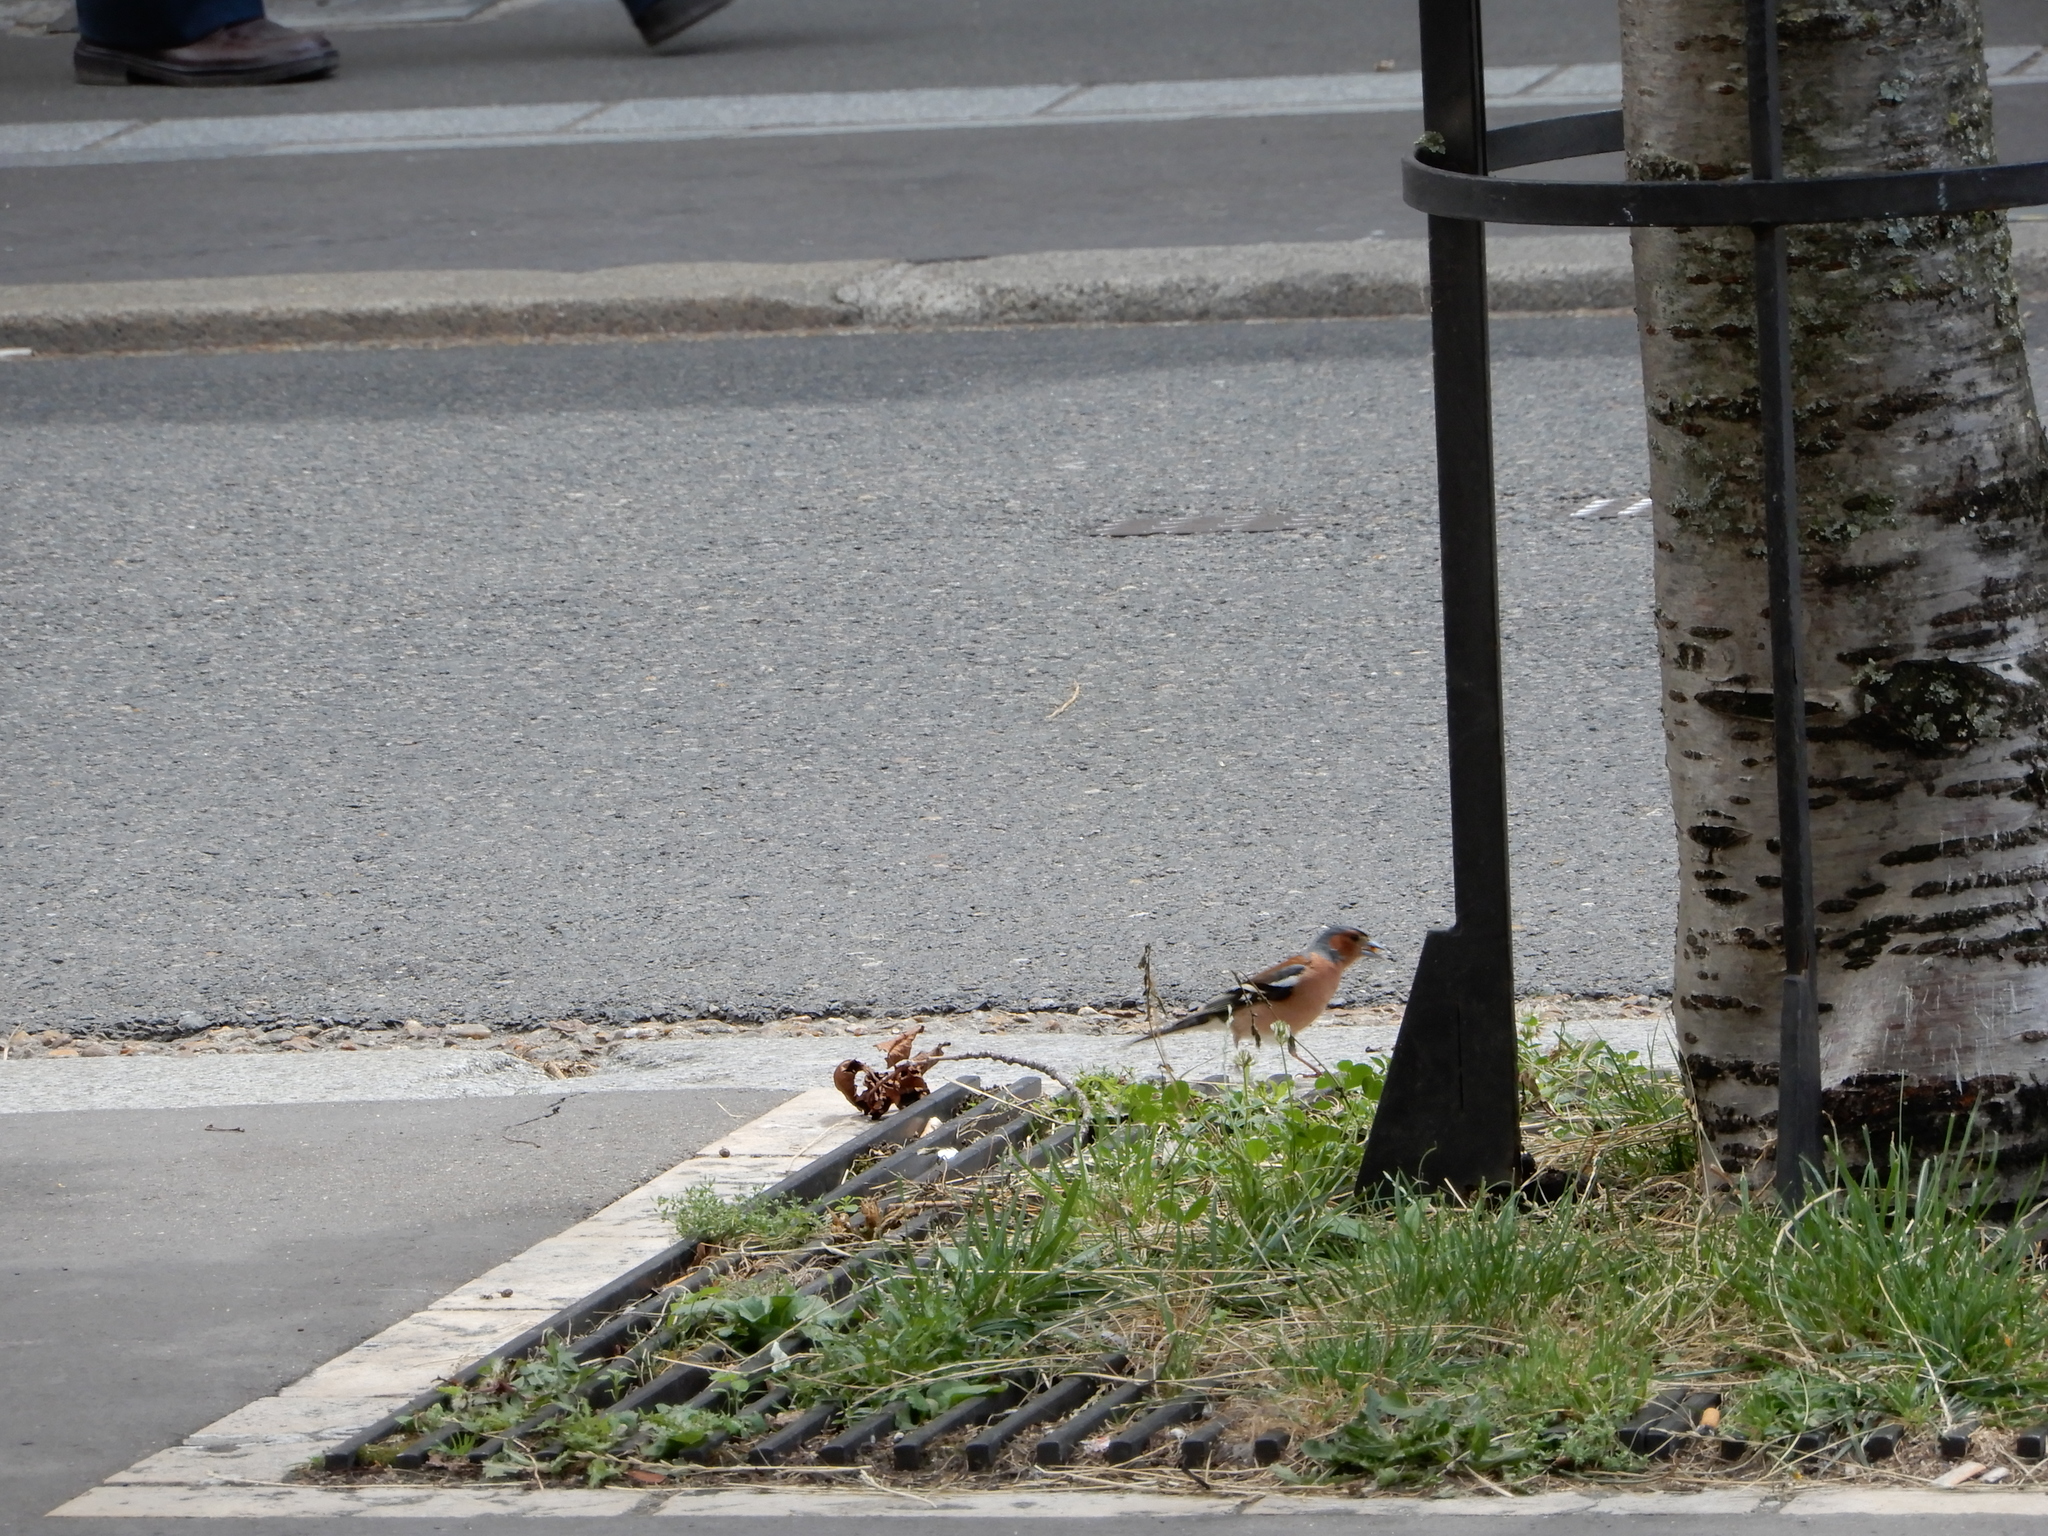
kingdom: Animalia
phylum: Chordata
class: Aves
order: Passeriformes
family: Fringillidae
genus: Fringilla
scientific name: Fringilla coelebs
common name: Common chaffinch
